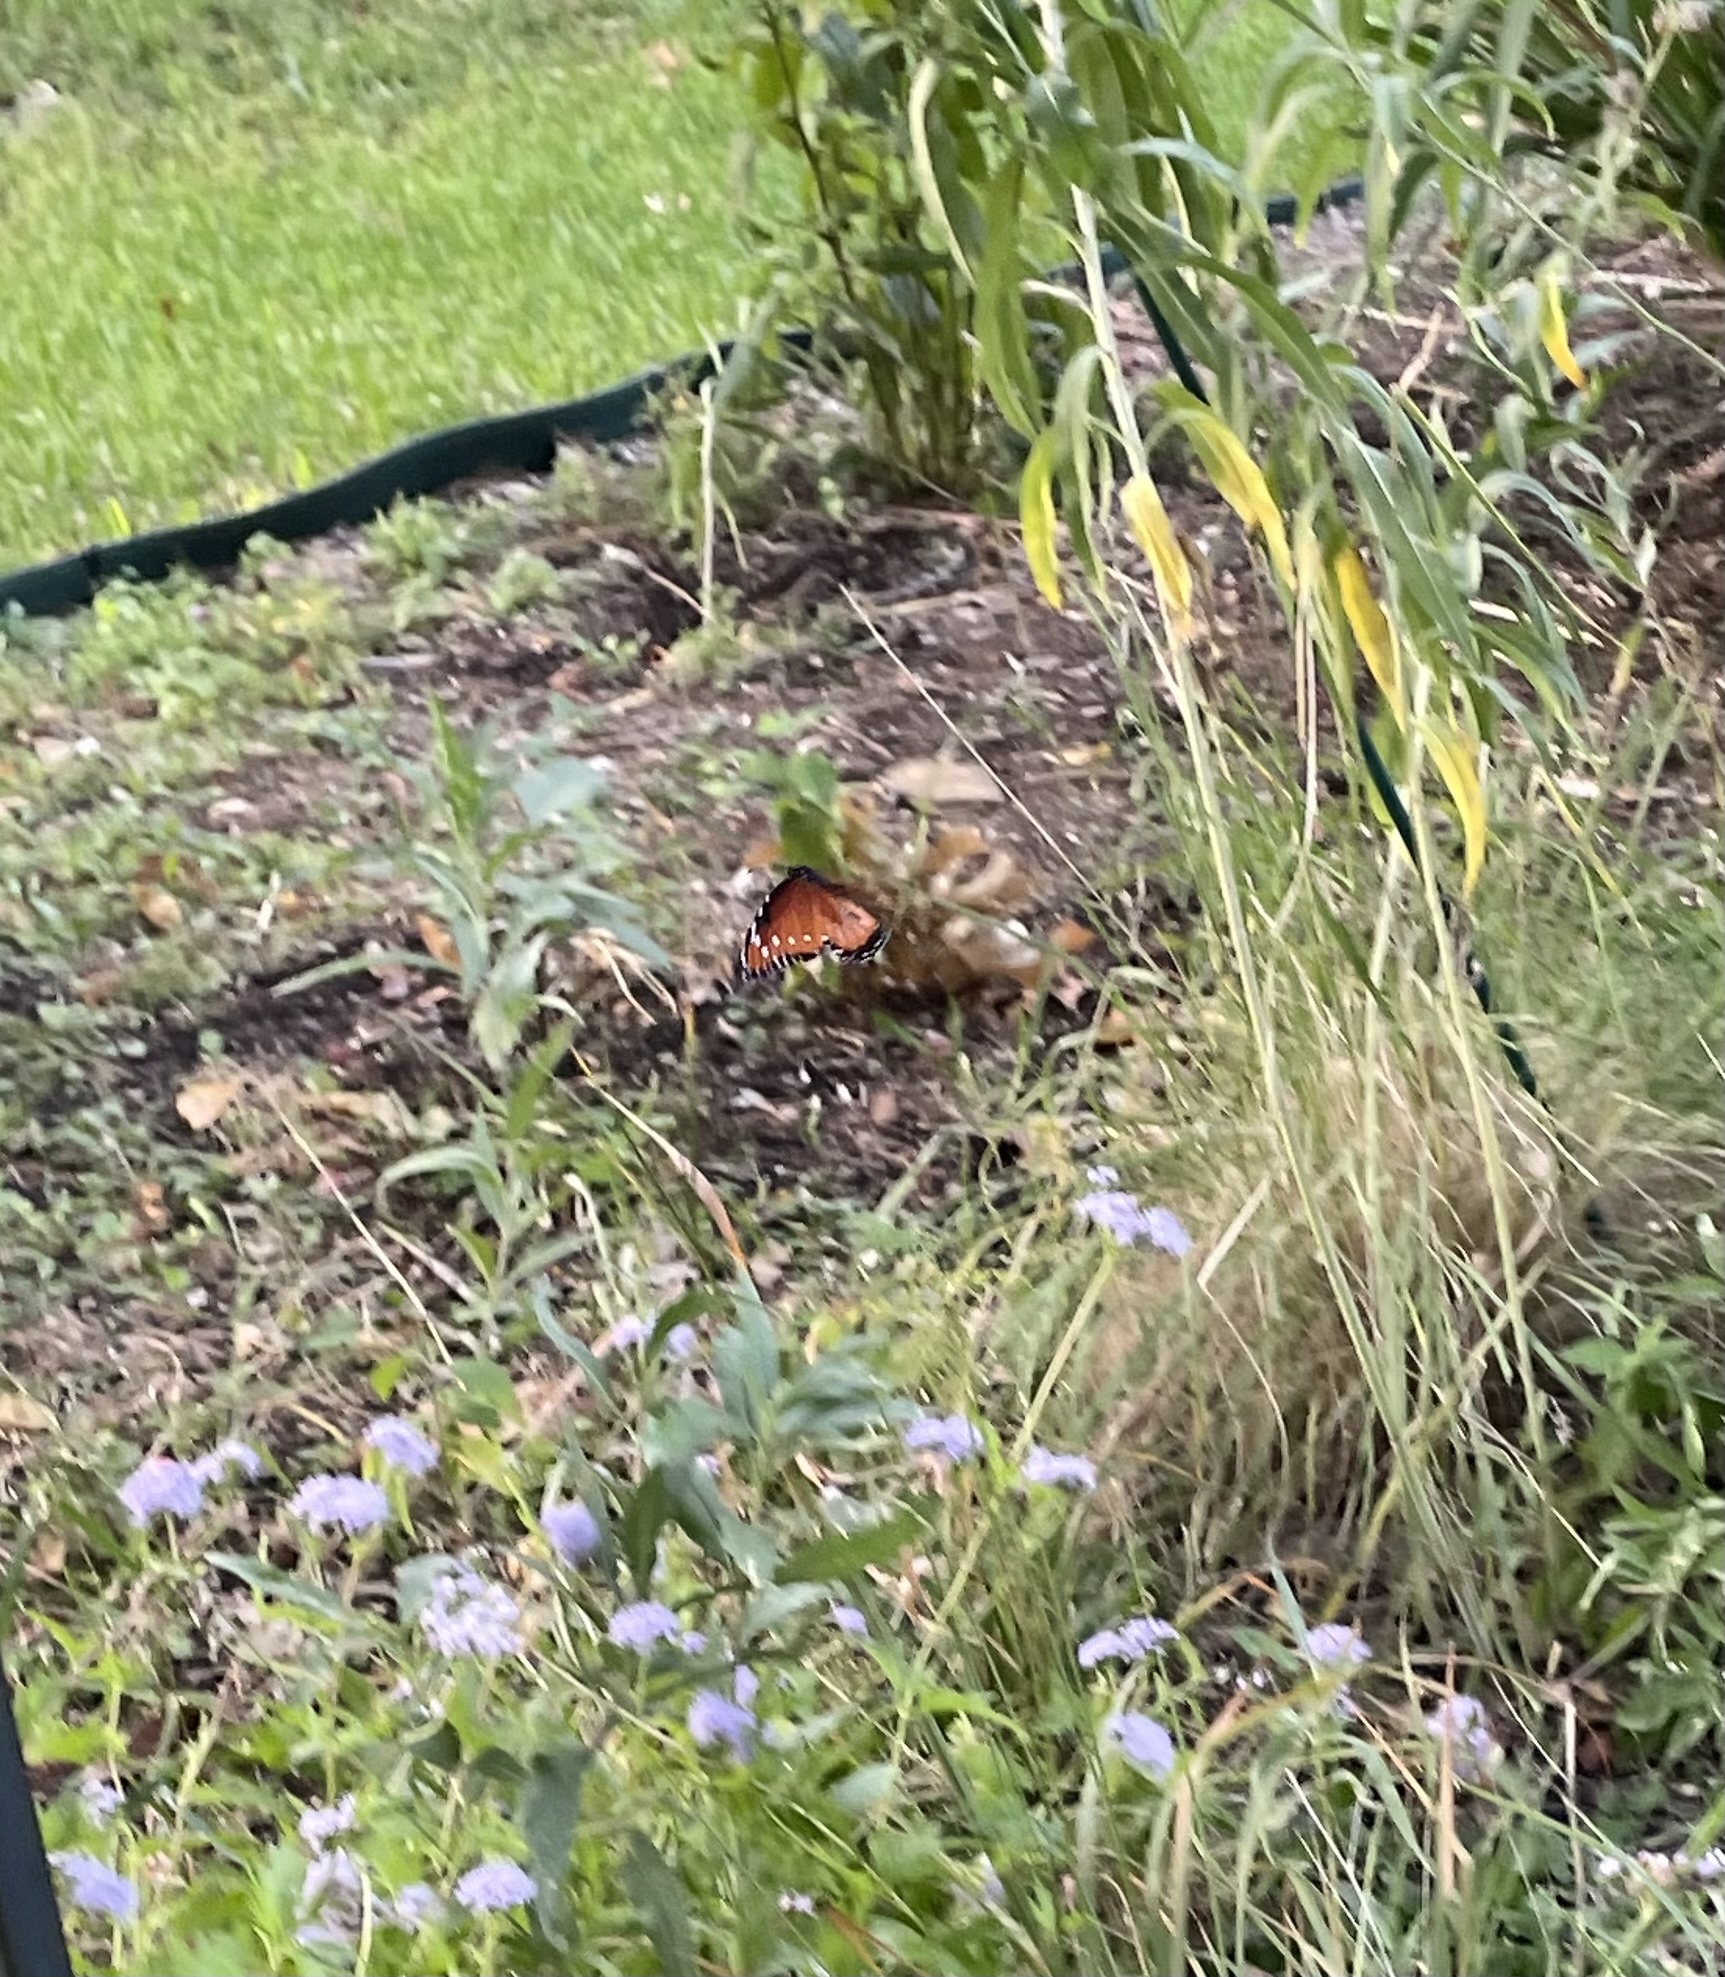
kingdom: Animalia
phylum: Arthropoda
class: Insecta
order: Lepidoptera
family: Nymphalidae
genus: Danaus
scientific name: Danaus gilippus
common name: Queen
